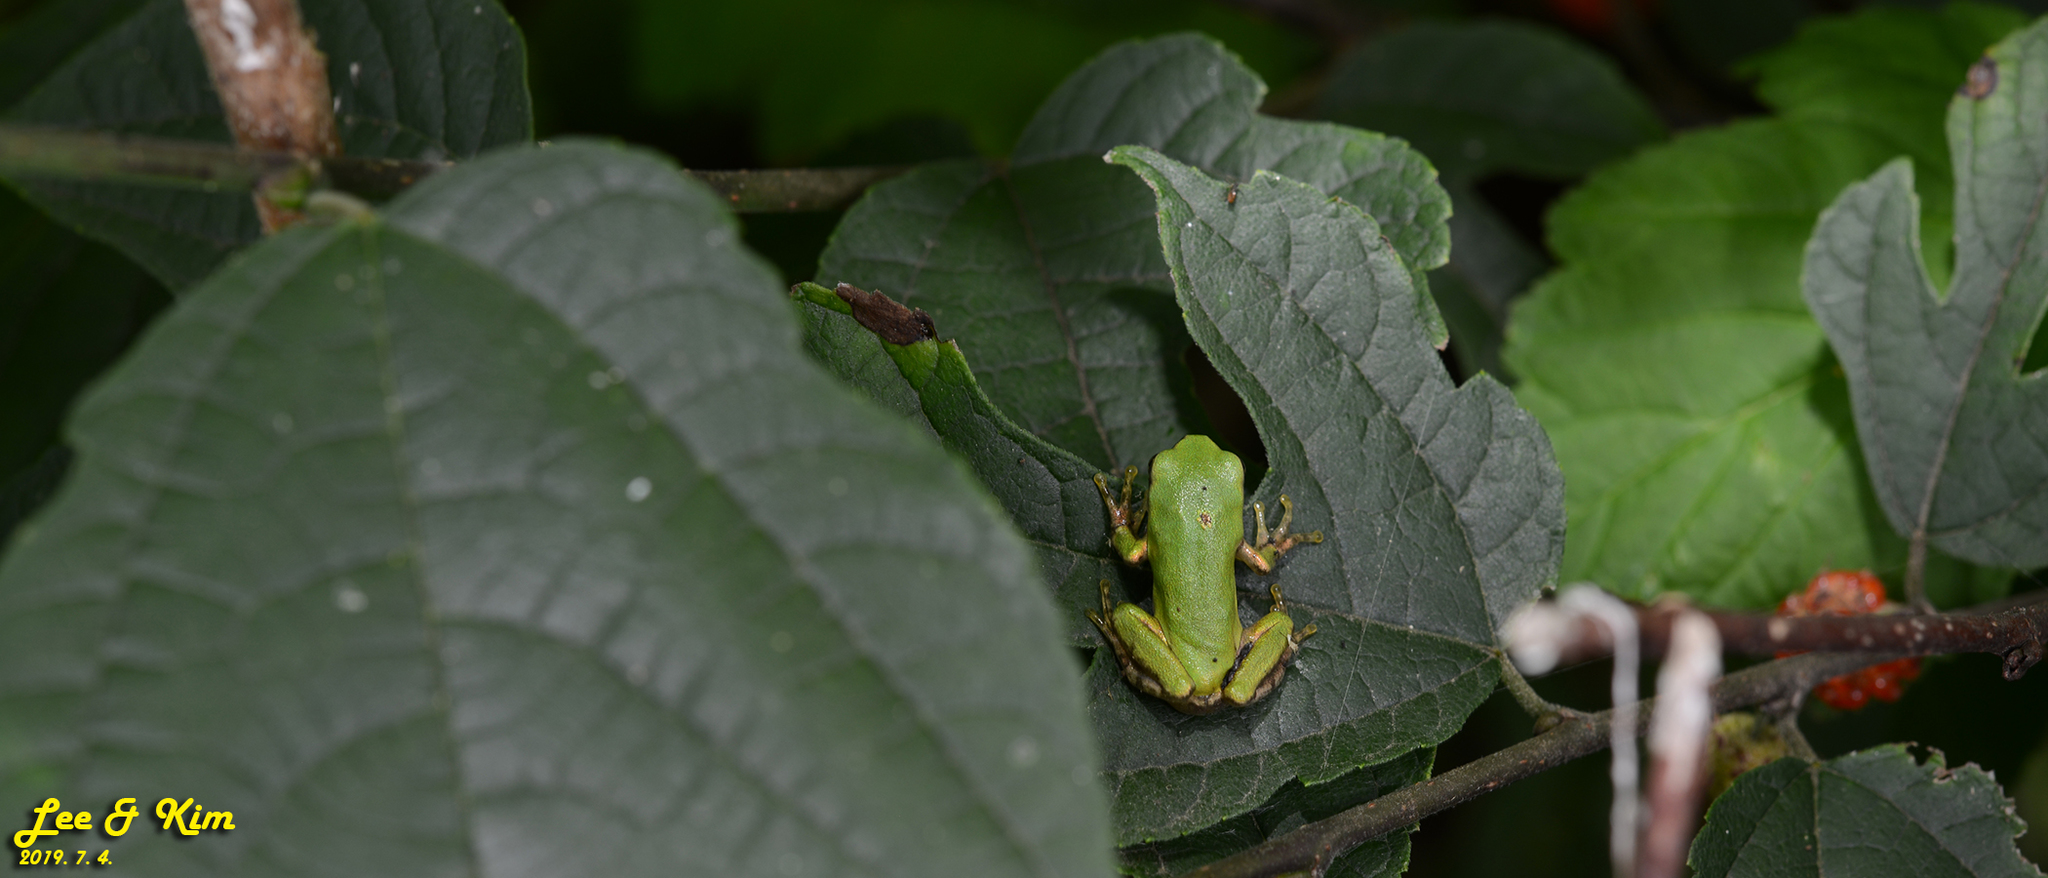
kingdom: Animalia
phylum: Chordata
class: Amphibia
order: Anura
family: Hylidae
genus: Dryophytes
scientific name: Dryophytes japonicus
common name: Japanese treefrog
